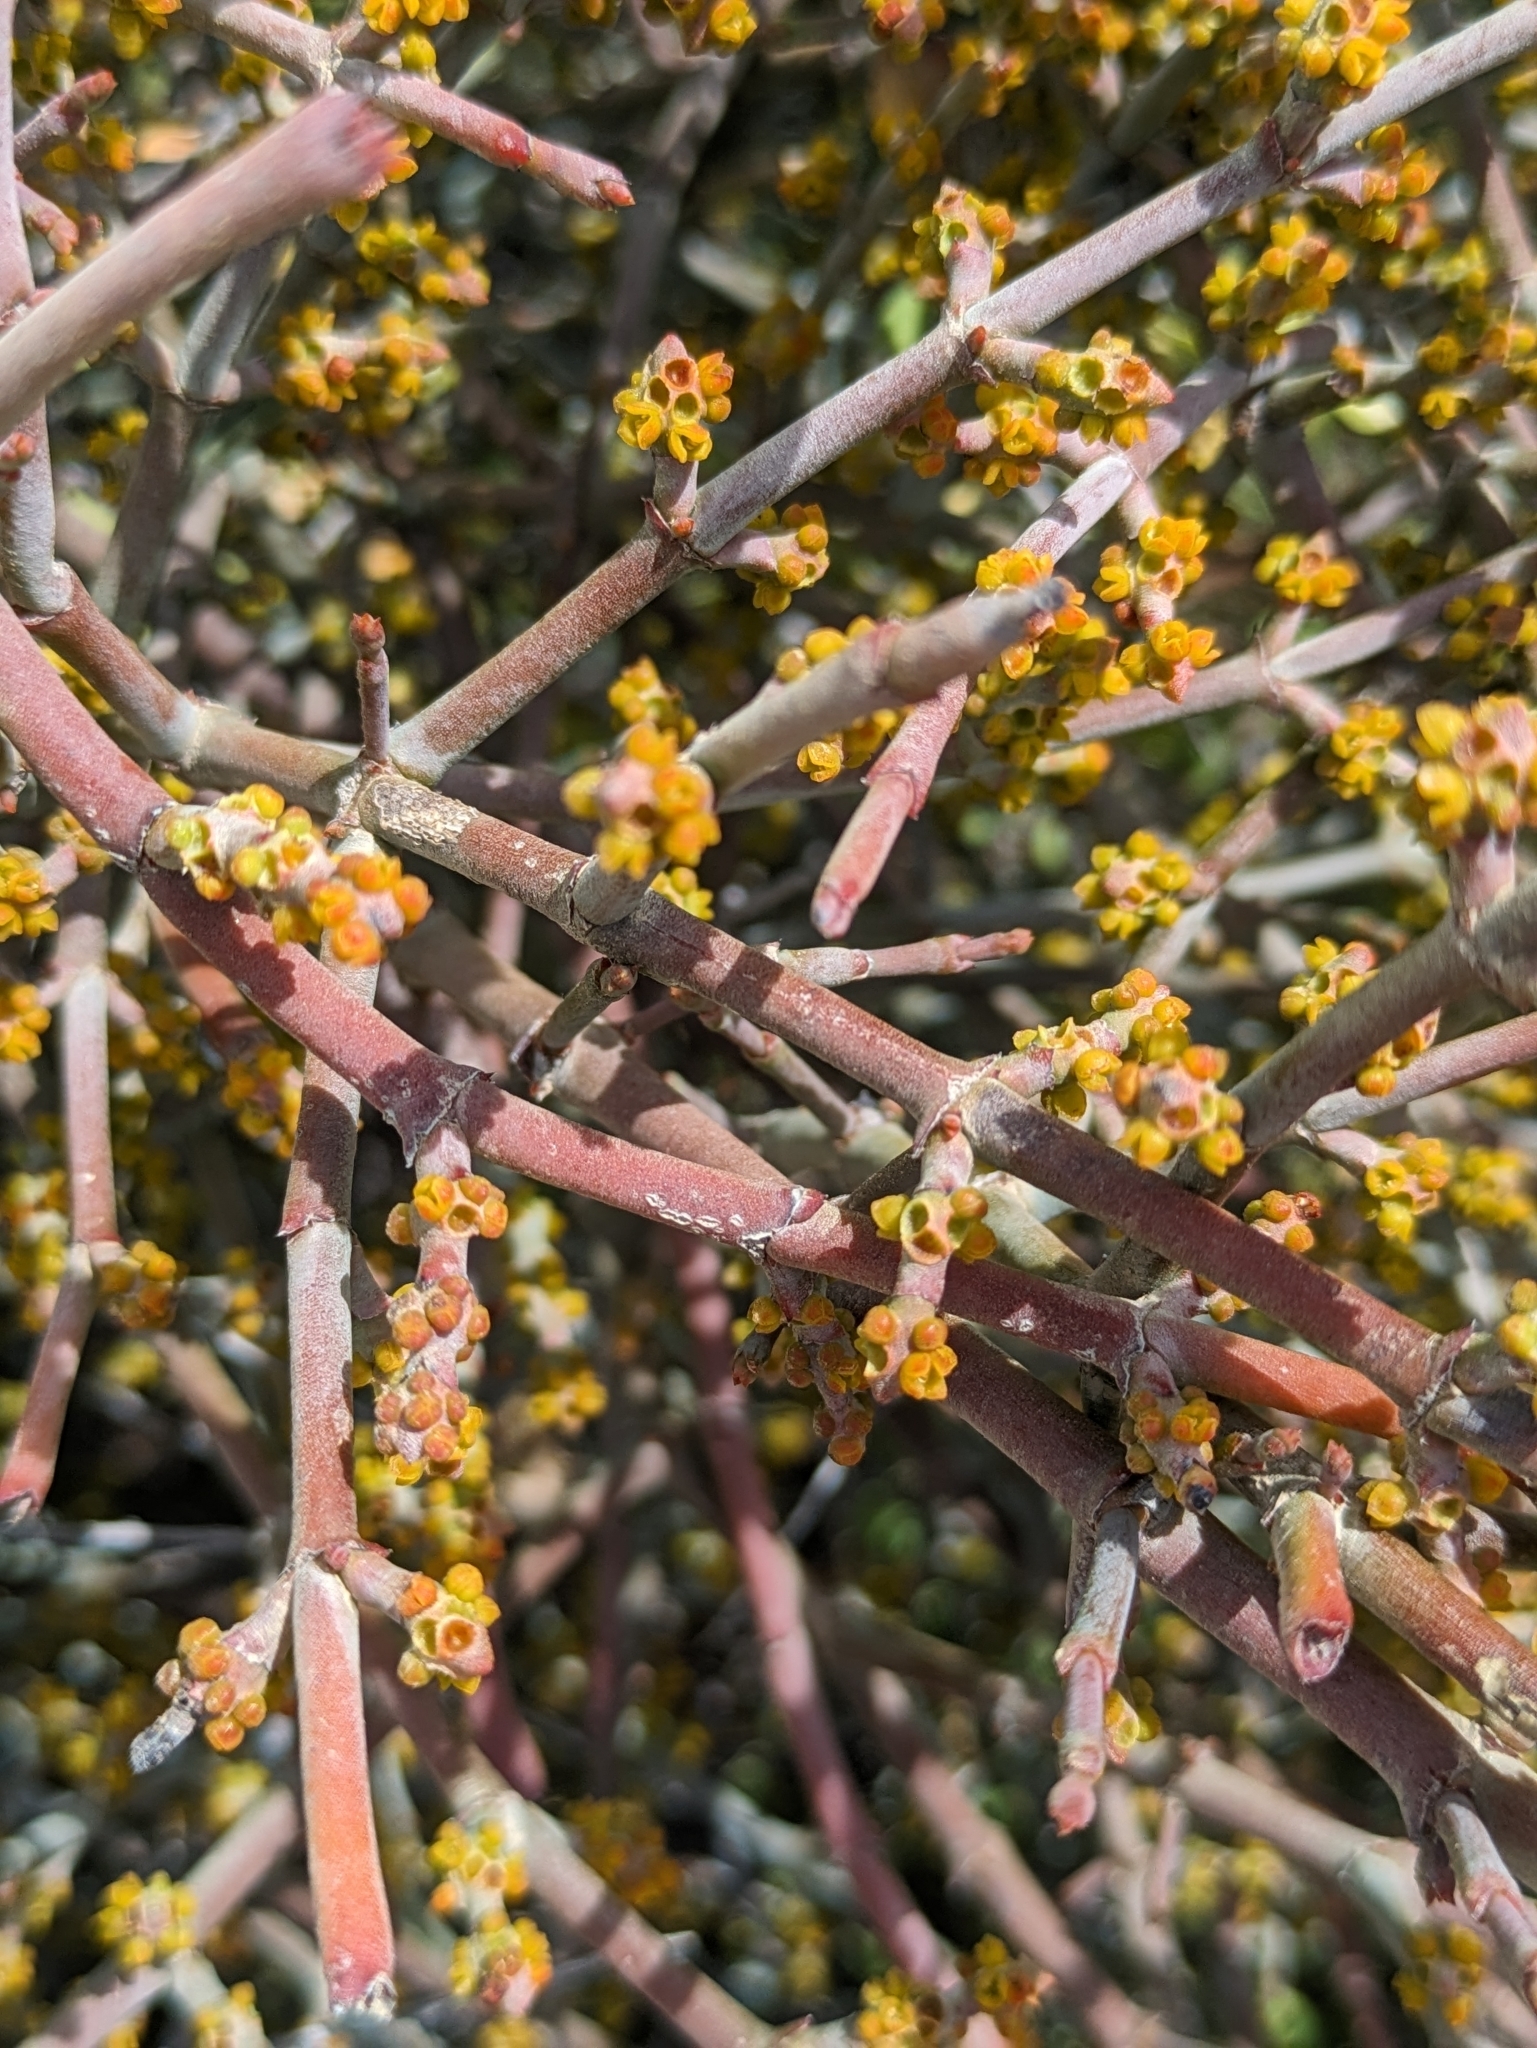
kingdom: Plantae
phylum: Tracheophyta
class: Magnoliopsida
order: Santalales
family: Viscaceae
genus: Phoradendron
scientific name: Phoradendron californicum
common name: Acacia mistletoe
